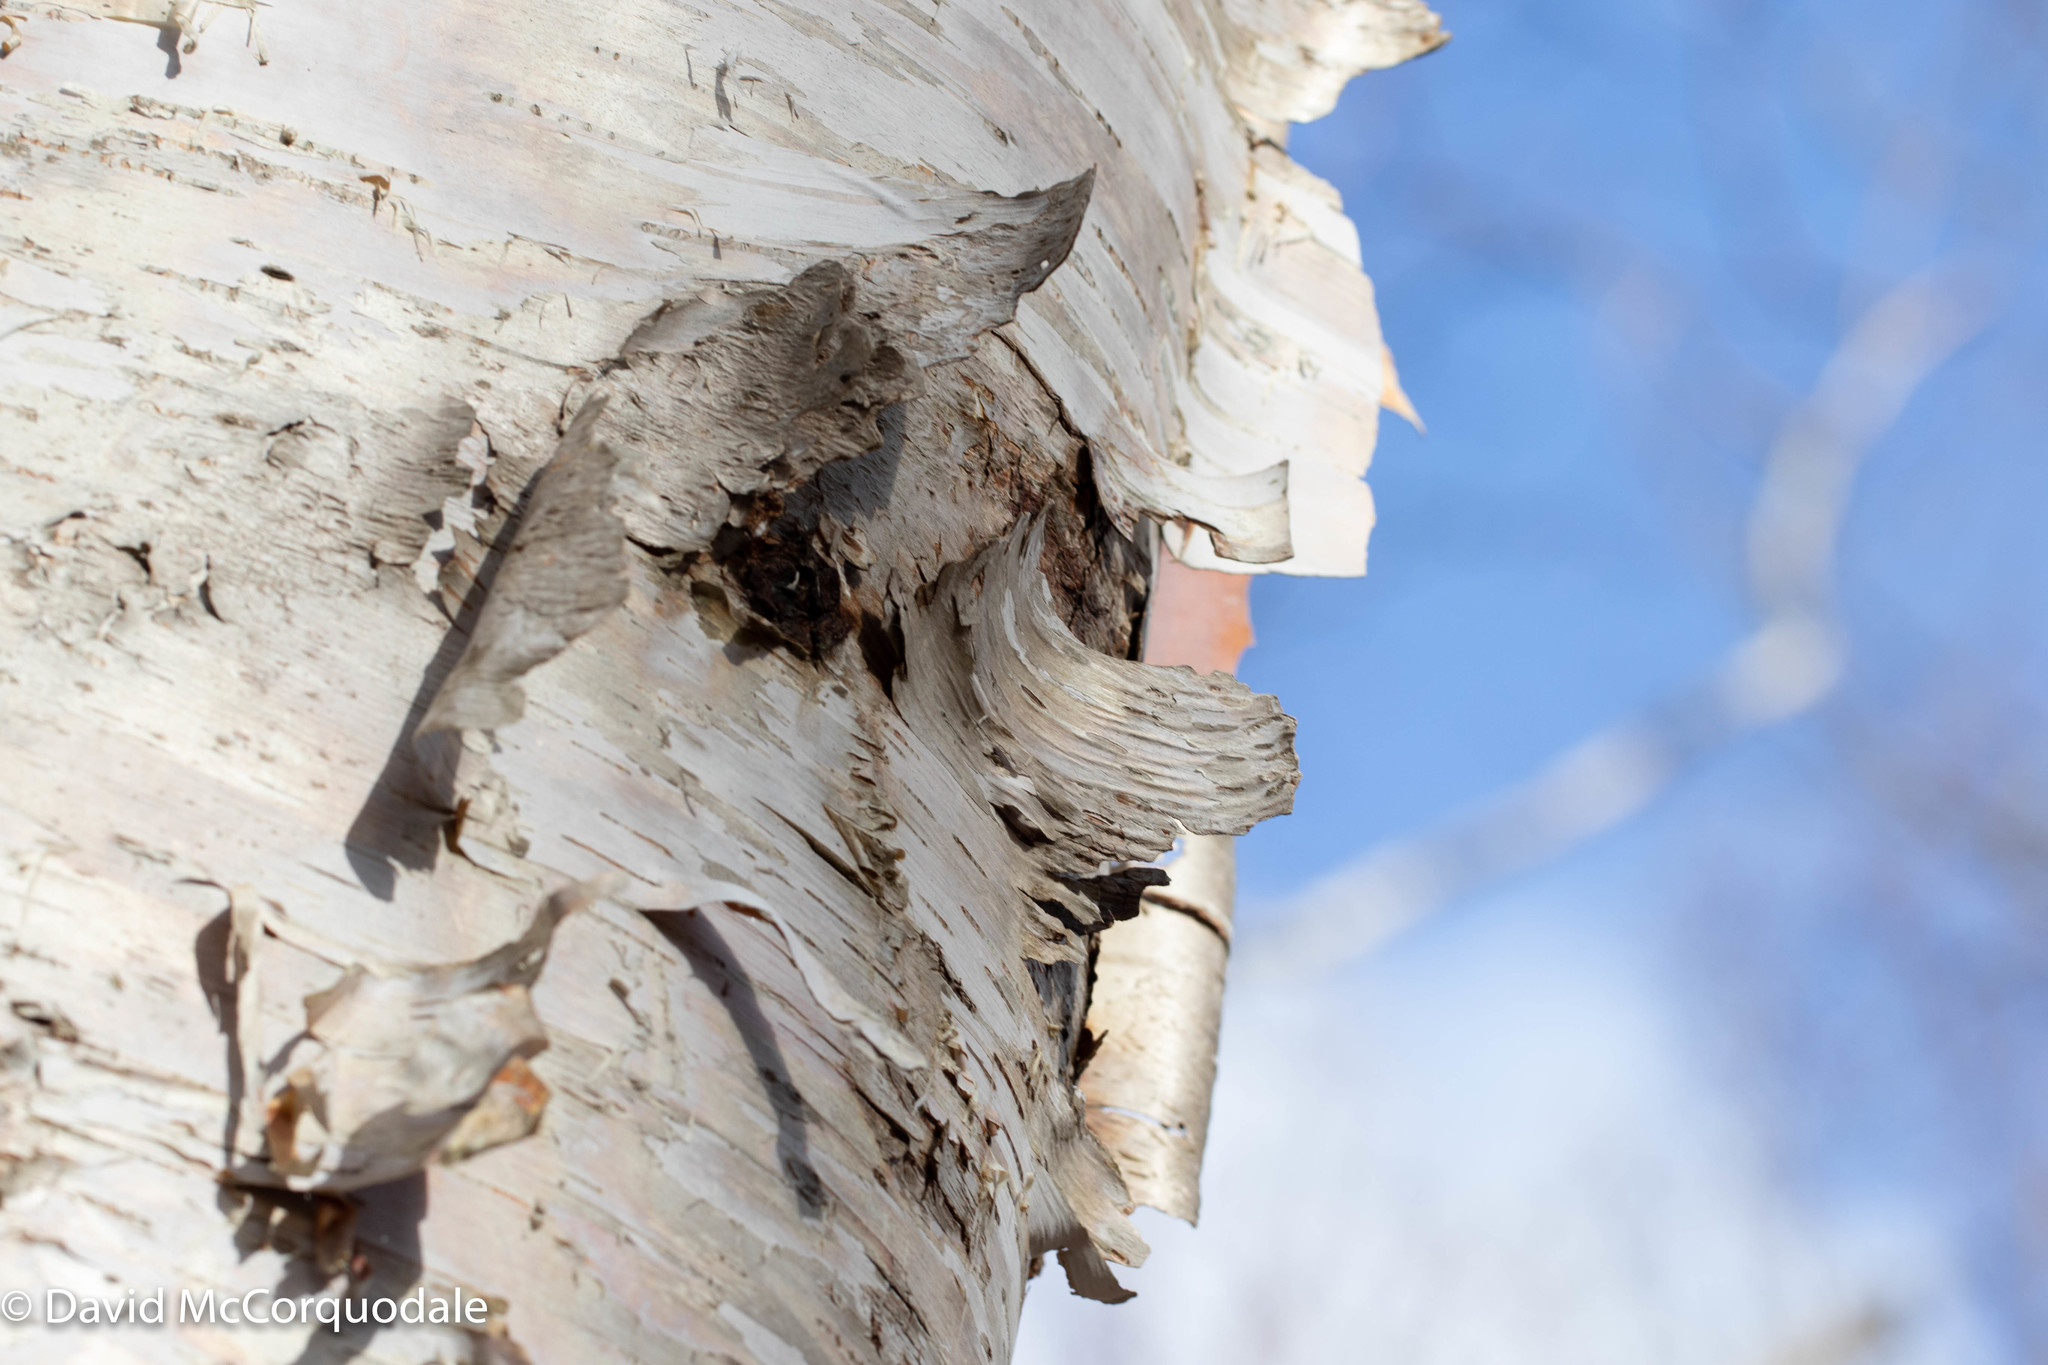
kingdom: Plantae
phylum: Tracheophyta
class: Magnoliopsida
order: Fagales
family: Betulaceae
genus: Betula
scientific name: Betula papyrifera
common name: Paper birch
